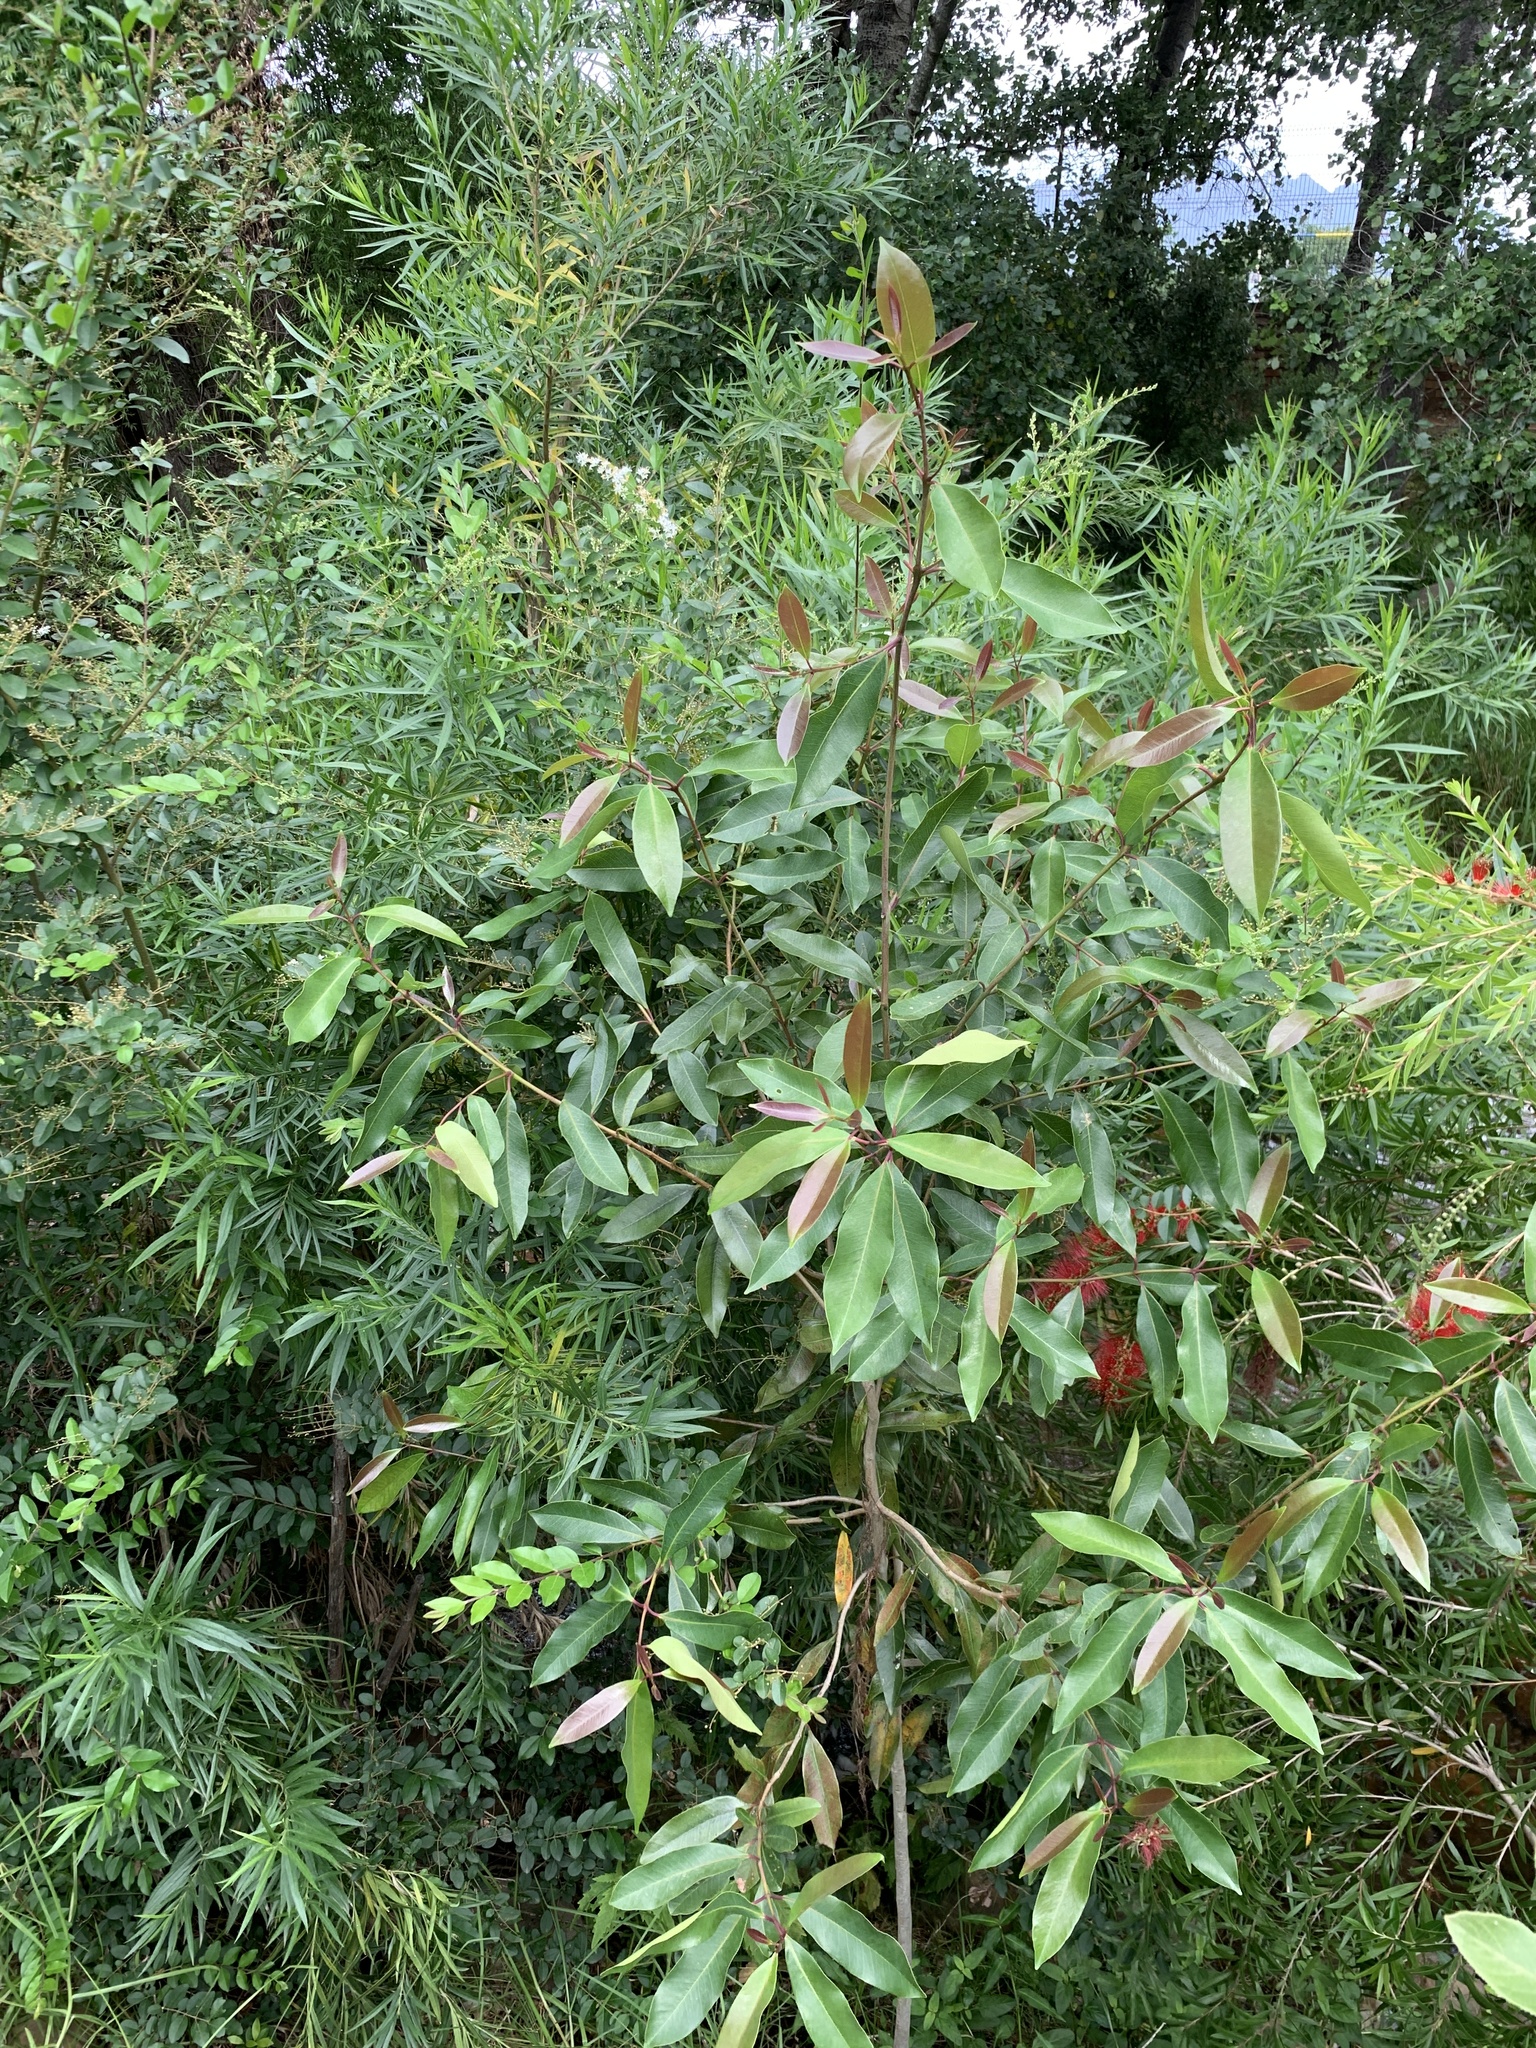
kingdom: Plantae
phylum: Tracheophyta
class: Magnoliopsida
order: Myrtales
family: Myrtaceae
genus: Syzygium
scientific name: Syzygium guineense
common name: Water-pear
